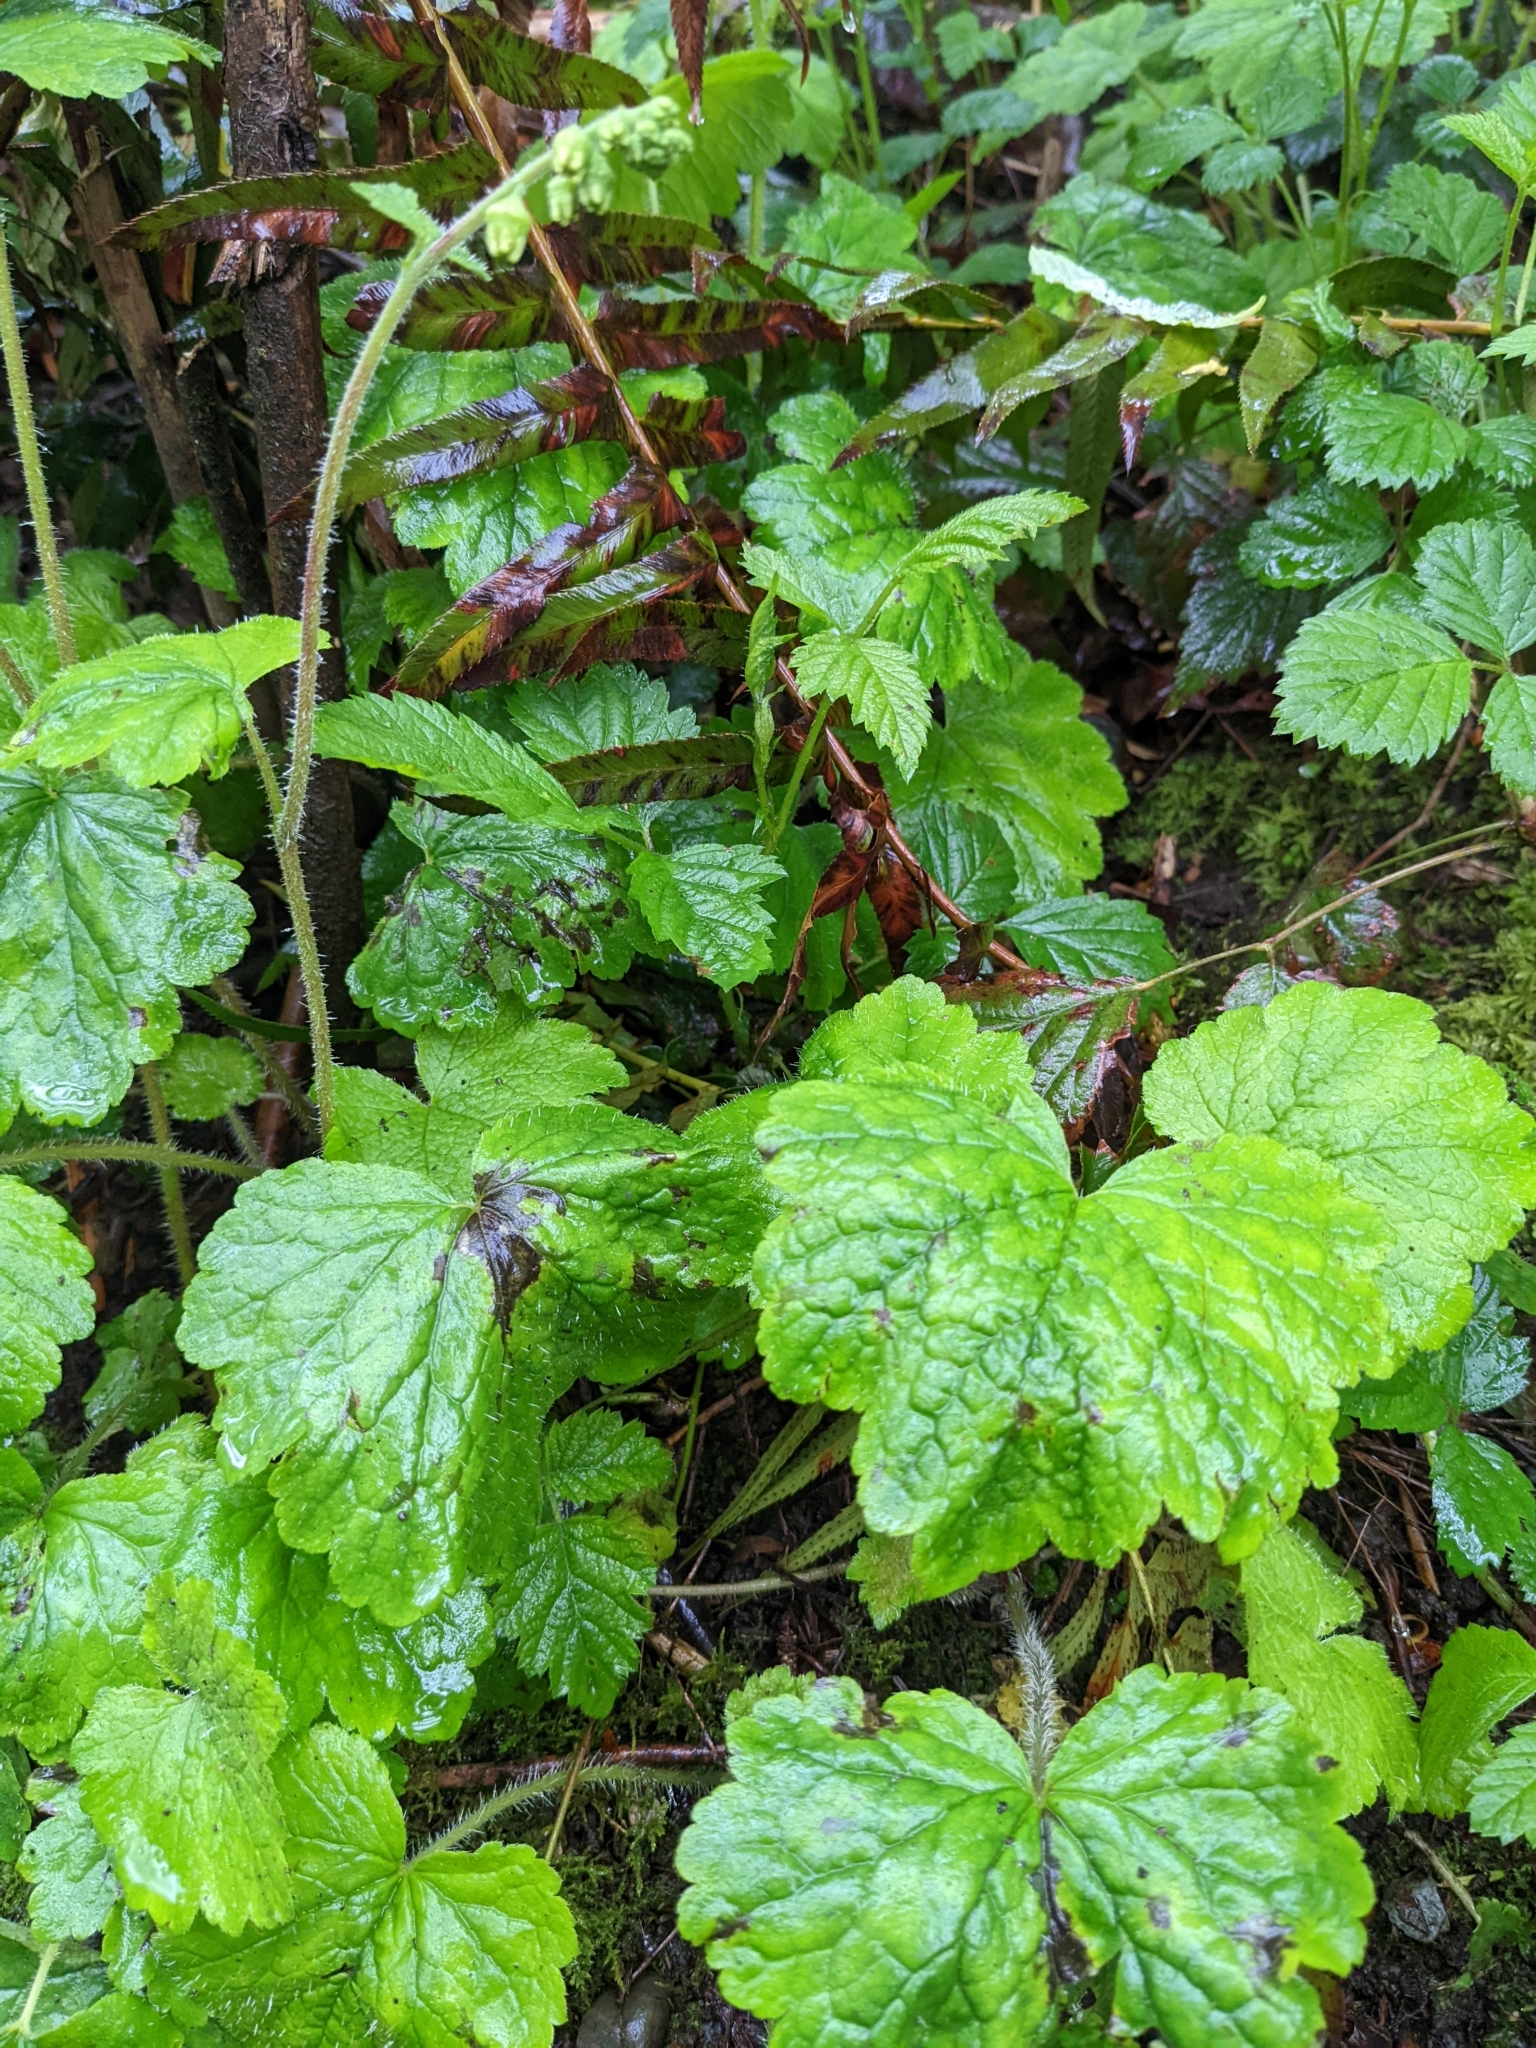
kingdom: Plantae
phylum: Tracheophyta
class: Magnoliopsida
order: Saxifragales
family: Saxifragaceae
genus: Tellima
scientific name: Tellima grandiflora
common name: Fringecups
